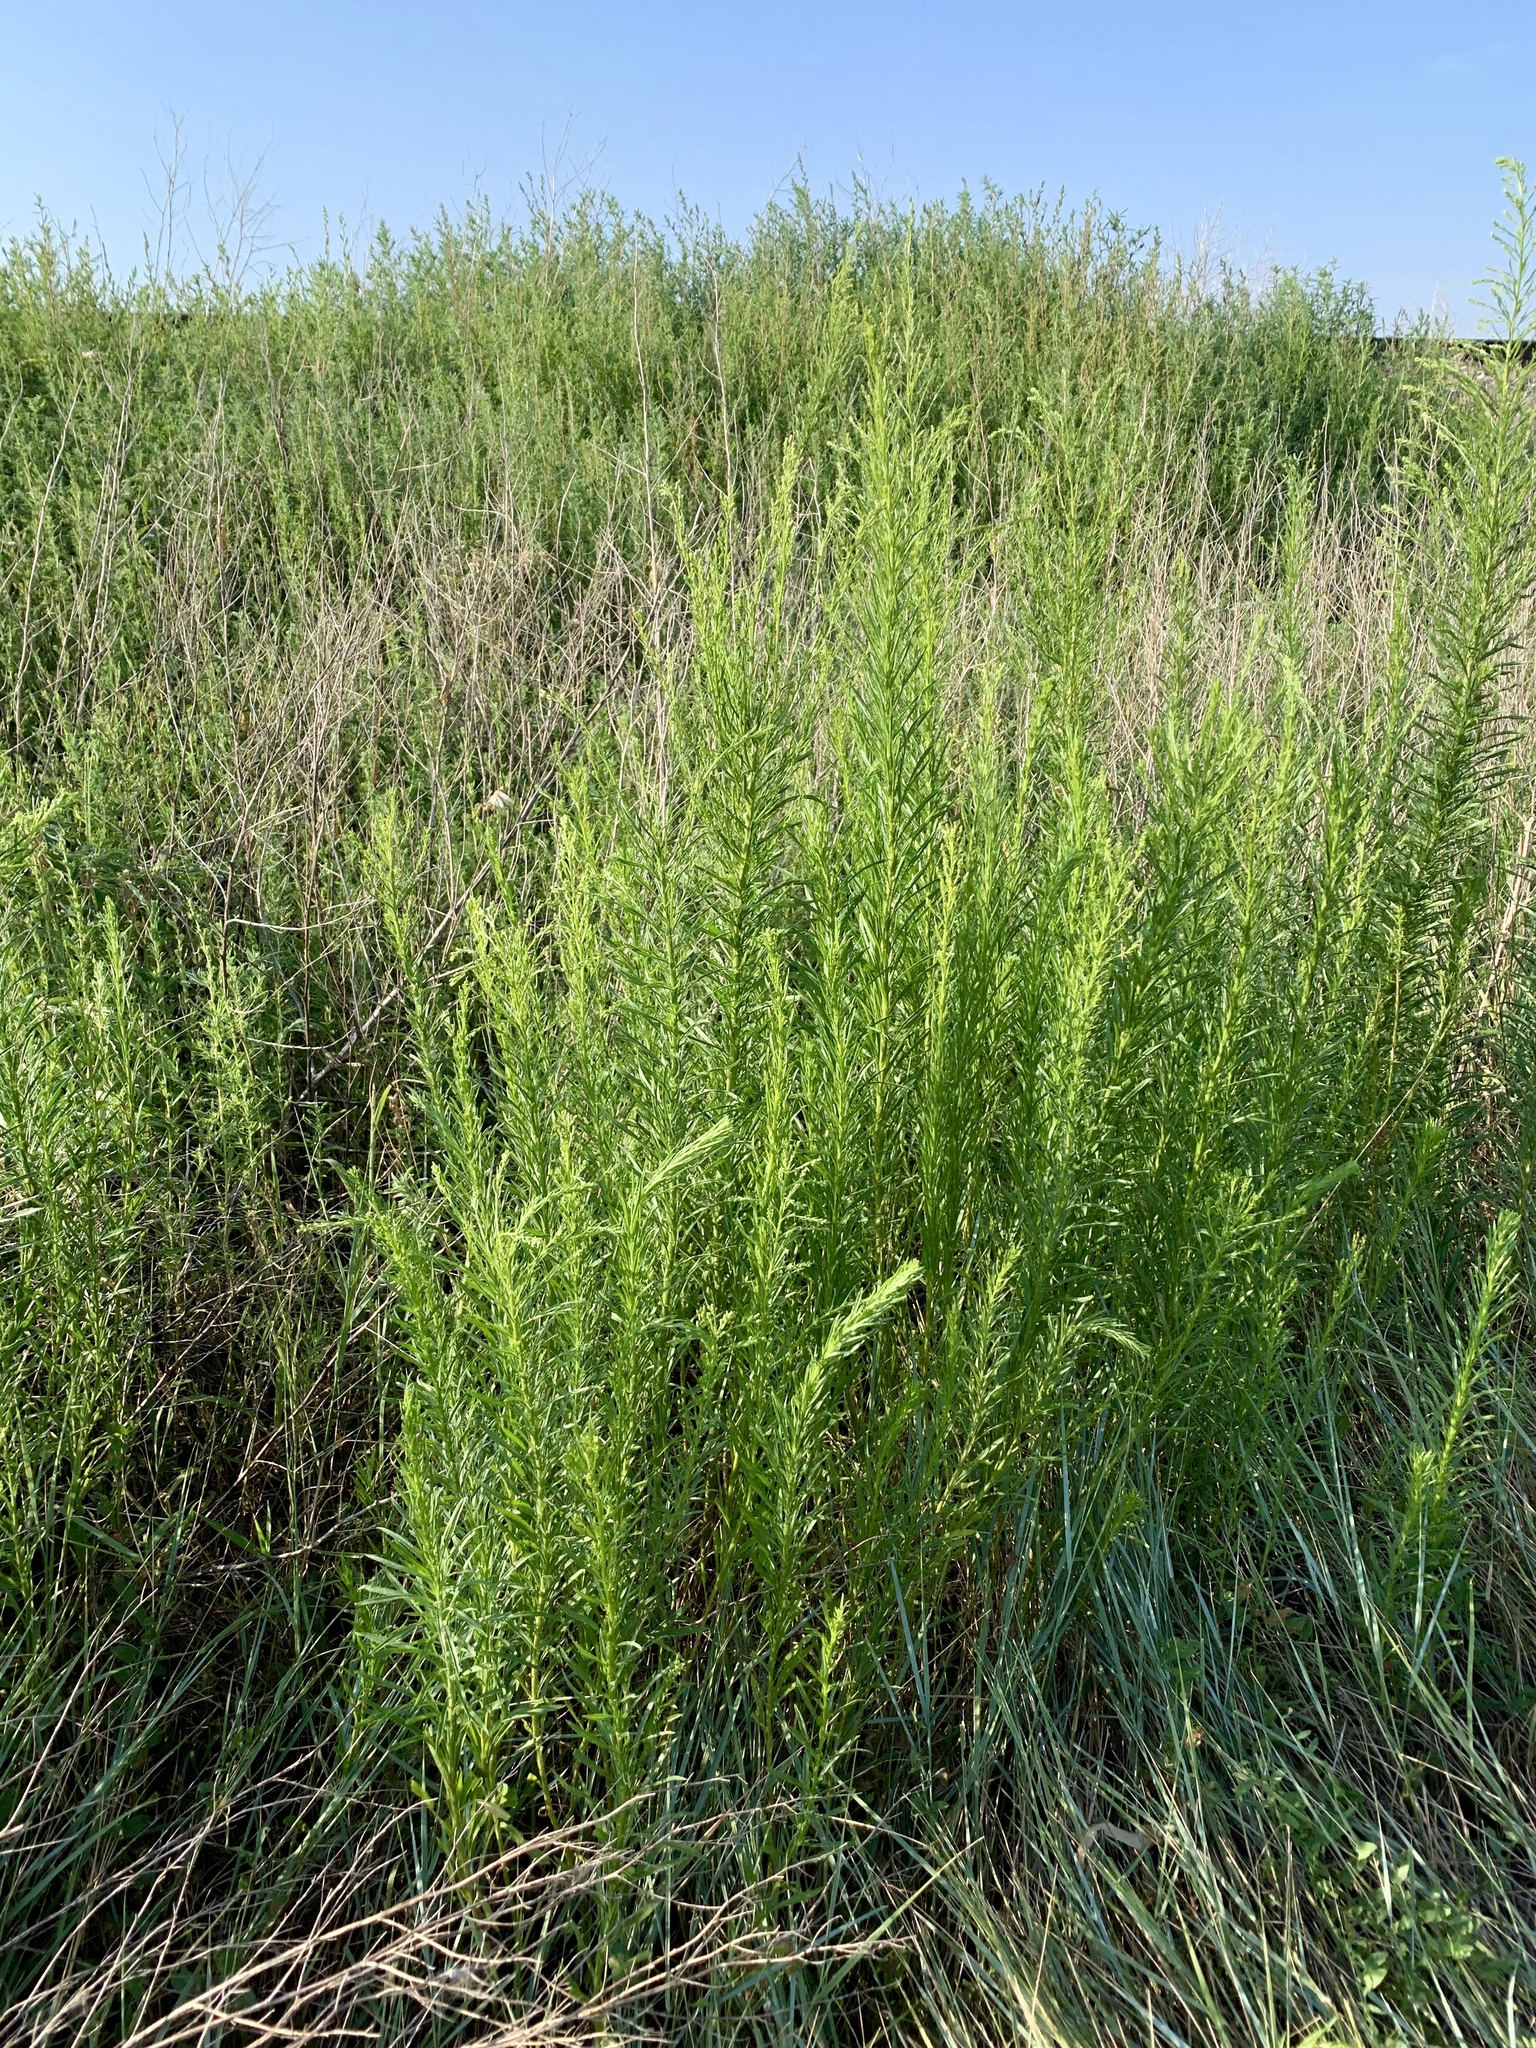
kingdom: Plantae
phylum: Tracheophyta
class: Magnoliopsida
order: Asterales
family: Asteraceae
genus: Erigeron
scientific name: Erigeron canadensis
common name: Canadian fleabane
